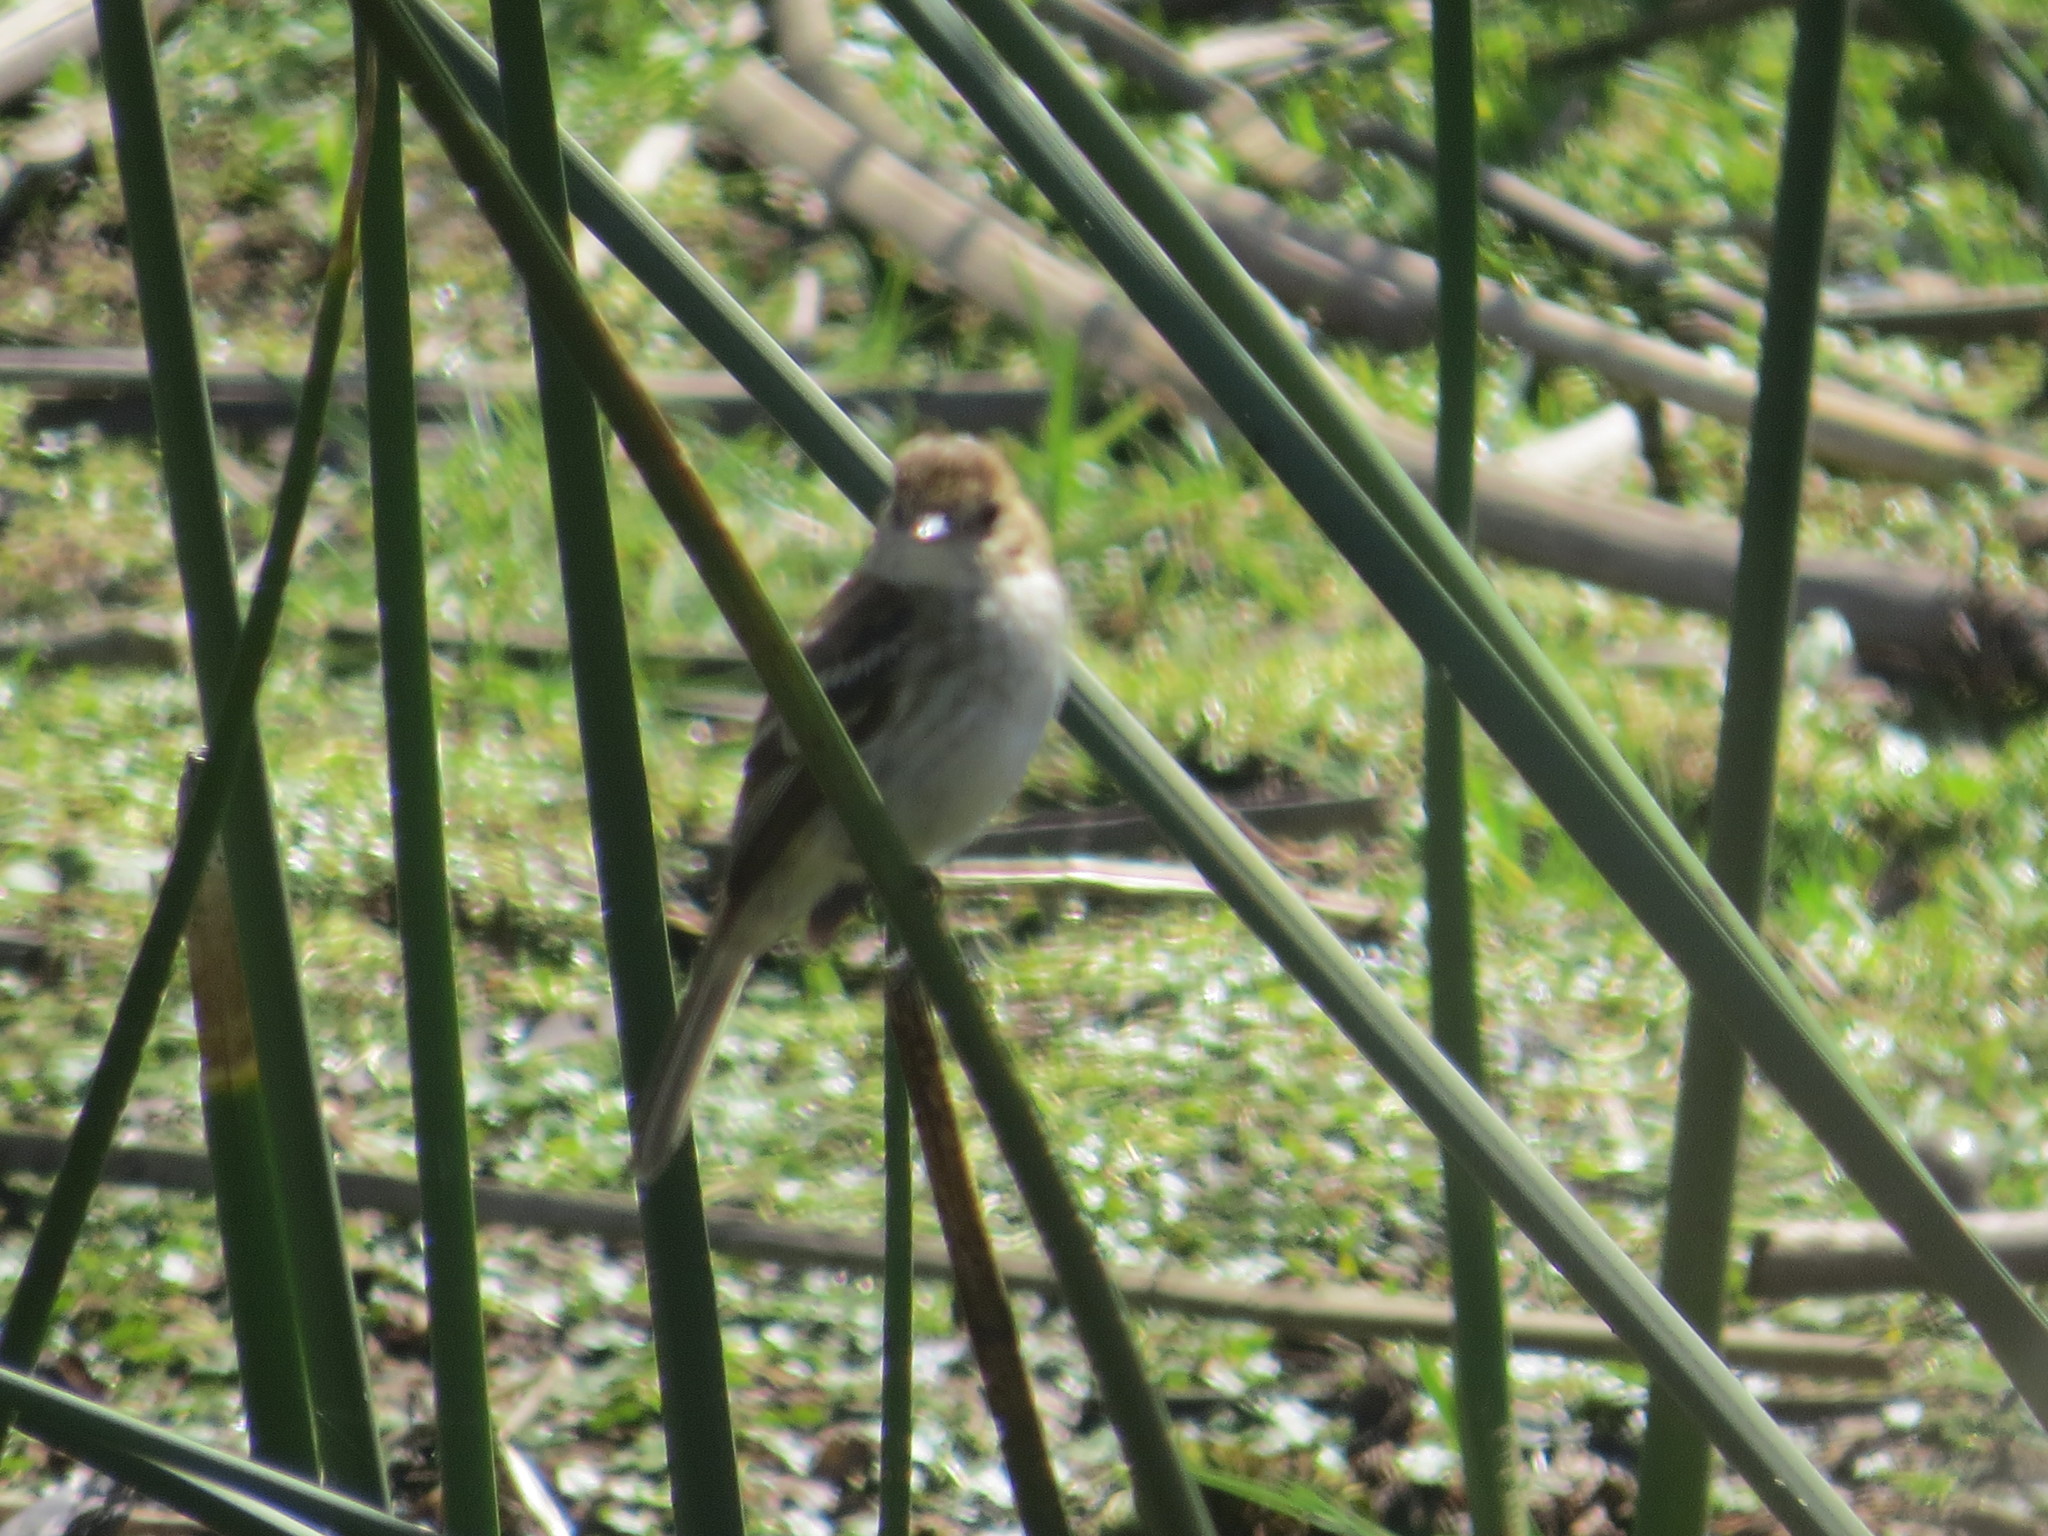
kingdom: Animalia
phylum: Chordata
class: Aves
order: Passeriformes
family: Tyrannidae
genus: Myiophobus
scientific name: Myiophobus fasciatus
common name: Bran-colored flycatcher
